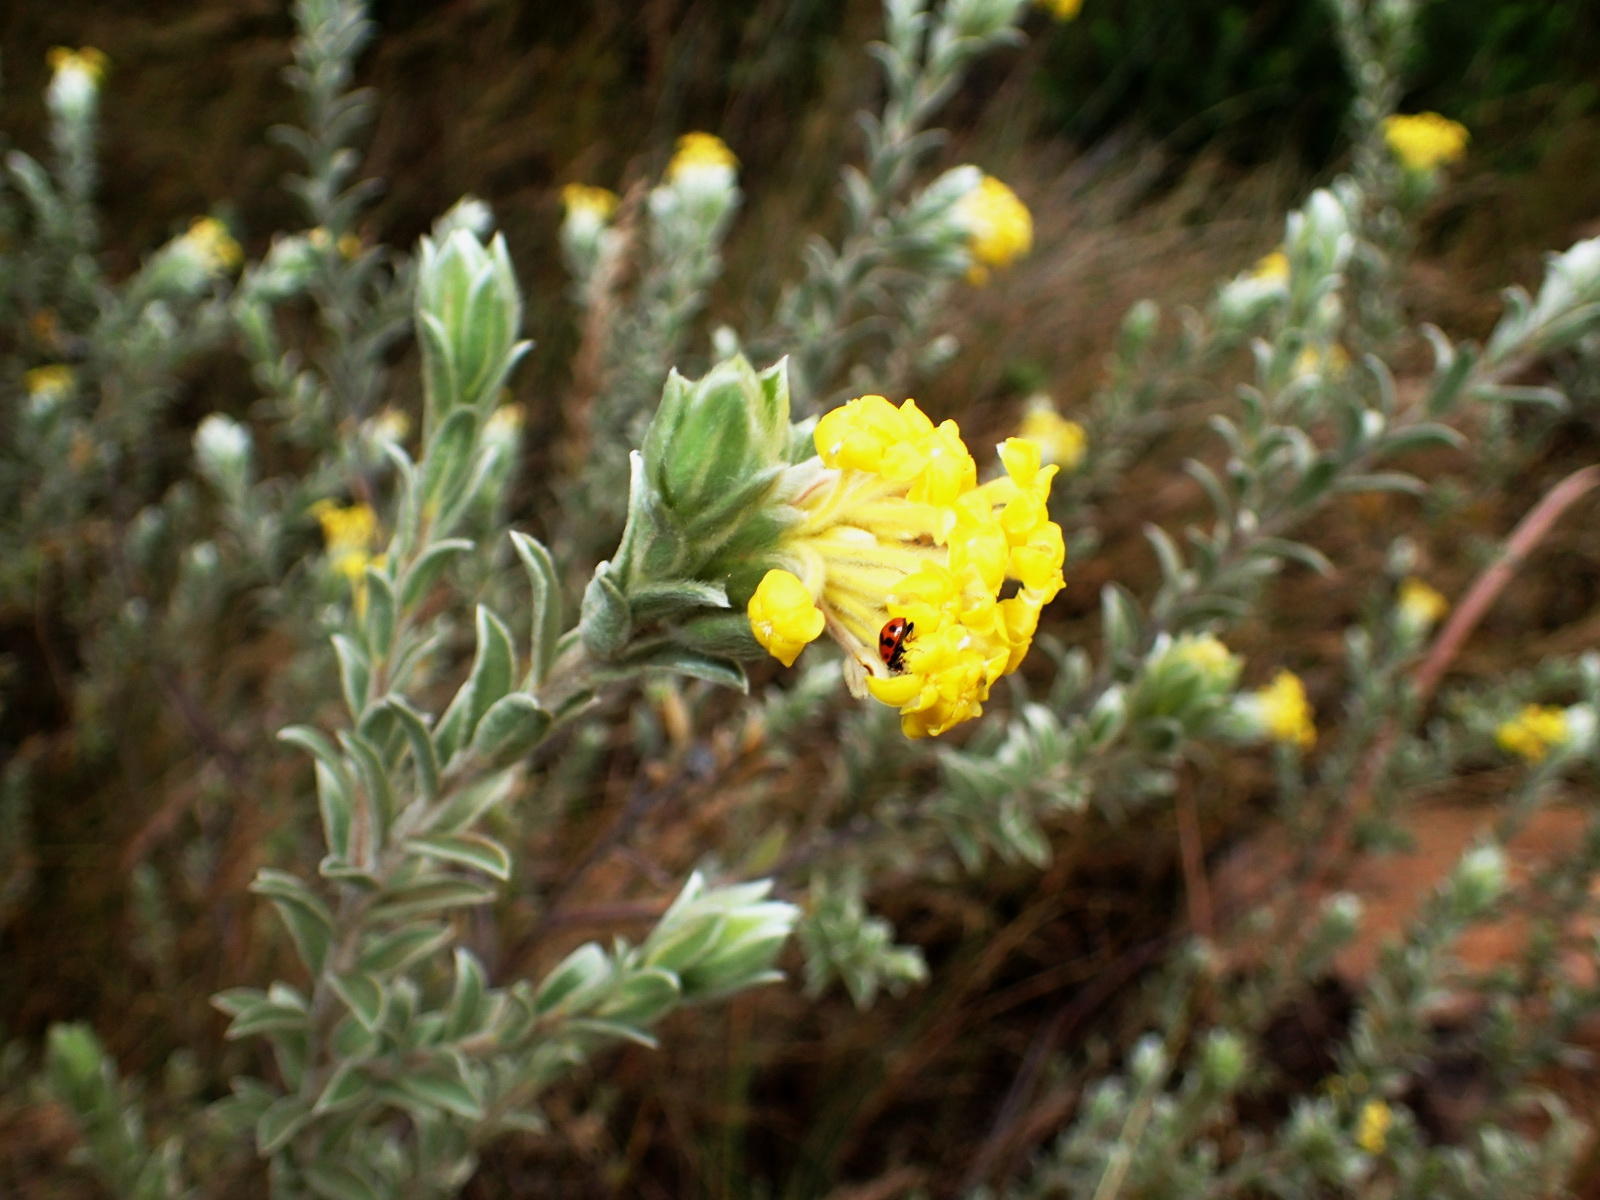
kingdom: Plantae
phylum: Tracheophyta
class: Magnoliopsida
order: Malvales
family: Thymelaeaceae
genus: Lasiosiphon
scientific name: Lasiosiphon polyanthus
